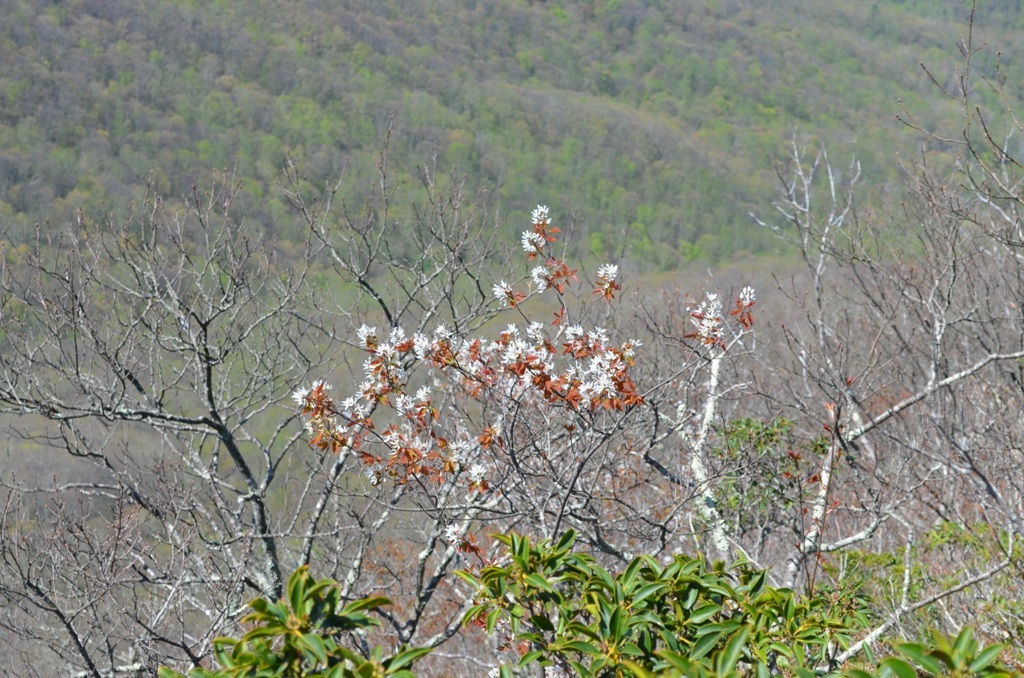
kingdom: Plantae
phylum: Tracheophyta
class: Magnoliopsida
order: Rosales
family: Rosaceae
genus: Amelanchier
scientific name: Amelanchier laevis
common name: Allegheny serviceberry
